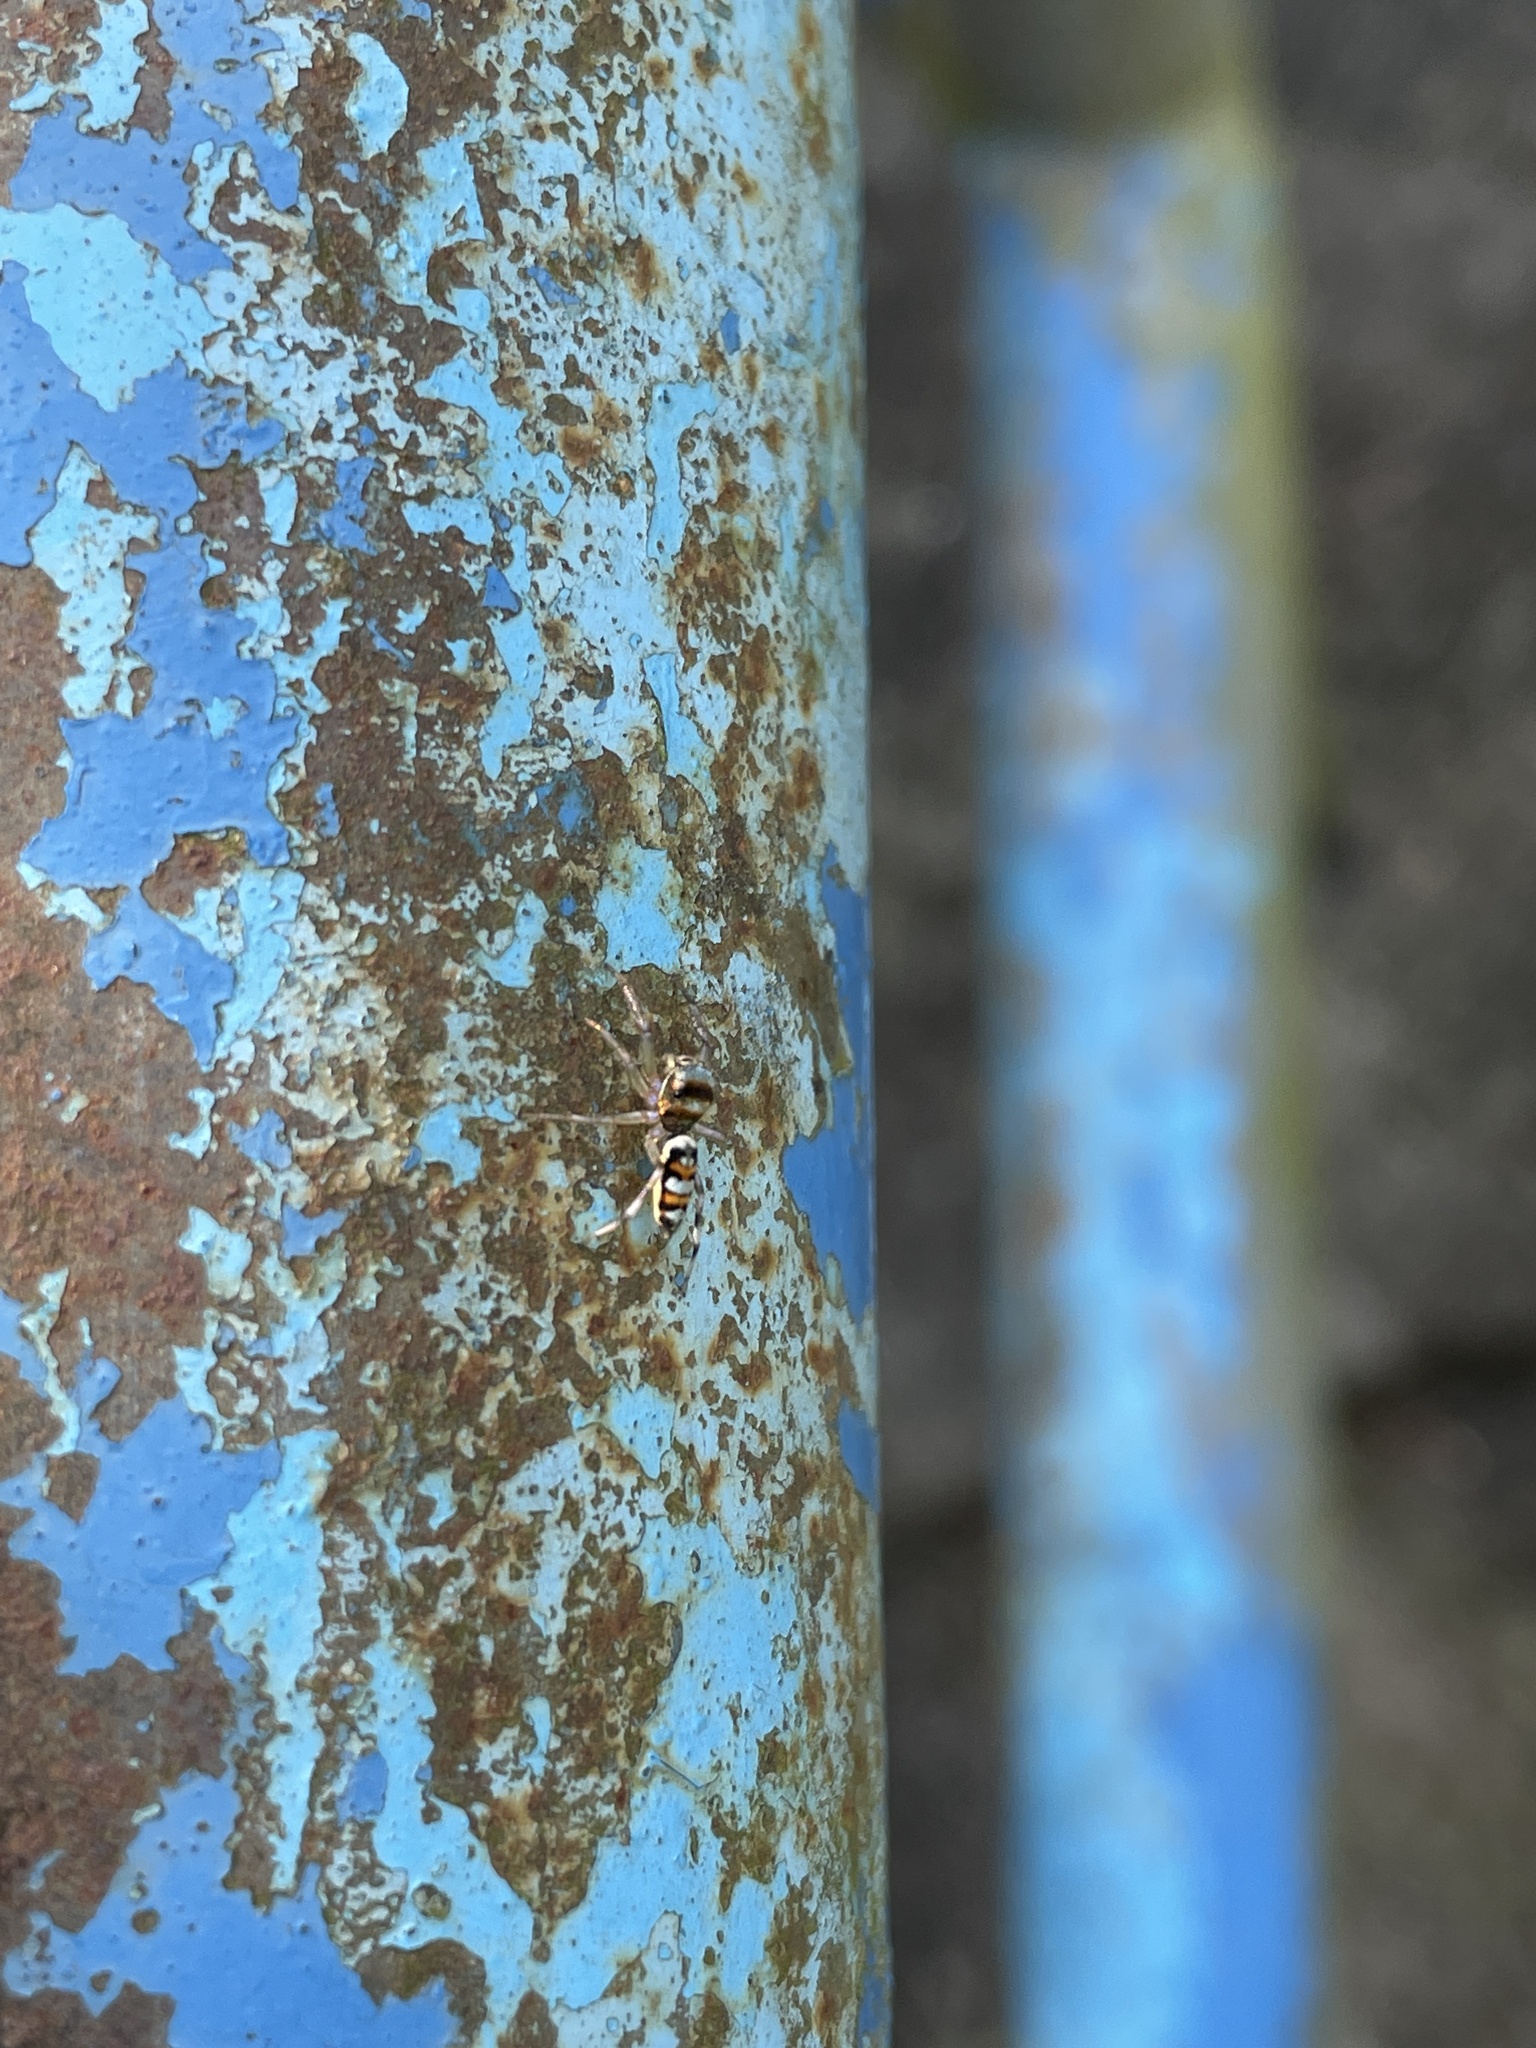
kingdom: Animalia
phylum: Arthropoda
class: Arachnida
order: Araneae
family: Salticidae
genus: Chrysilla
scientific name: Chrysilla acerosa
